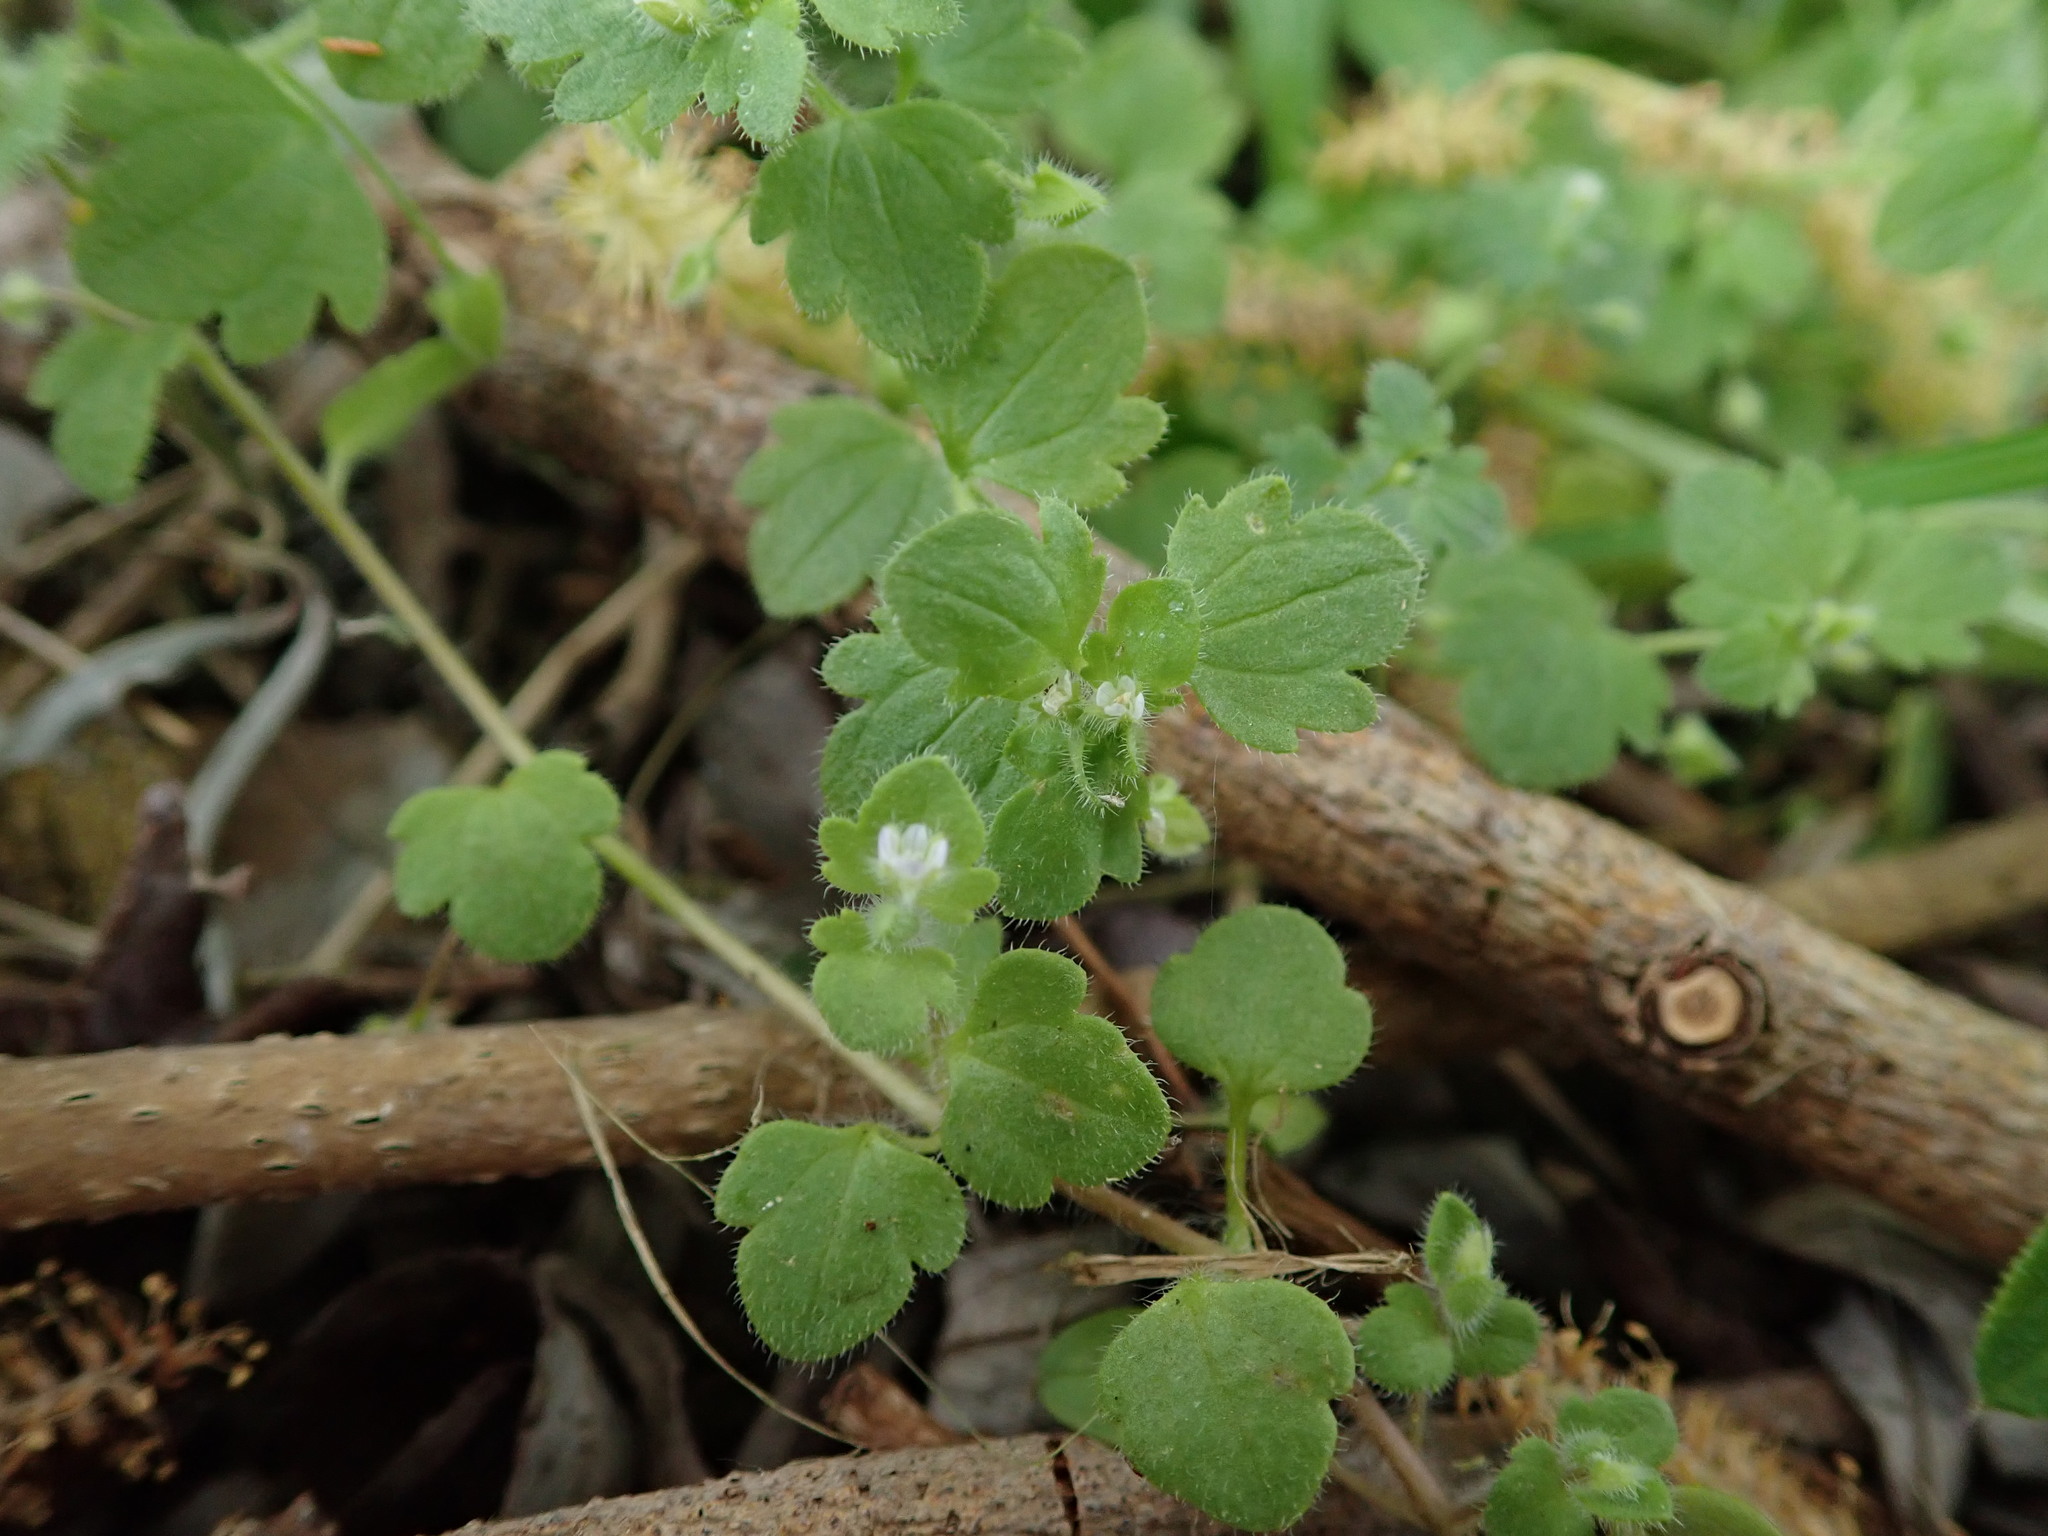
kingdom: Plantae
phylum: Tracheophyta
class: Magnoliopsida
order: Lamiales
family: Plantaginaceae
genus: Veronica
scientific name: Veronica sublobata
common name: False ivy-leaved speedwell
